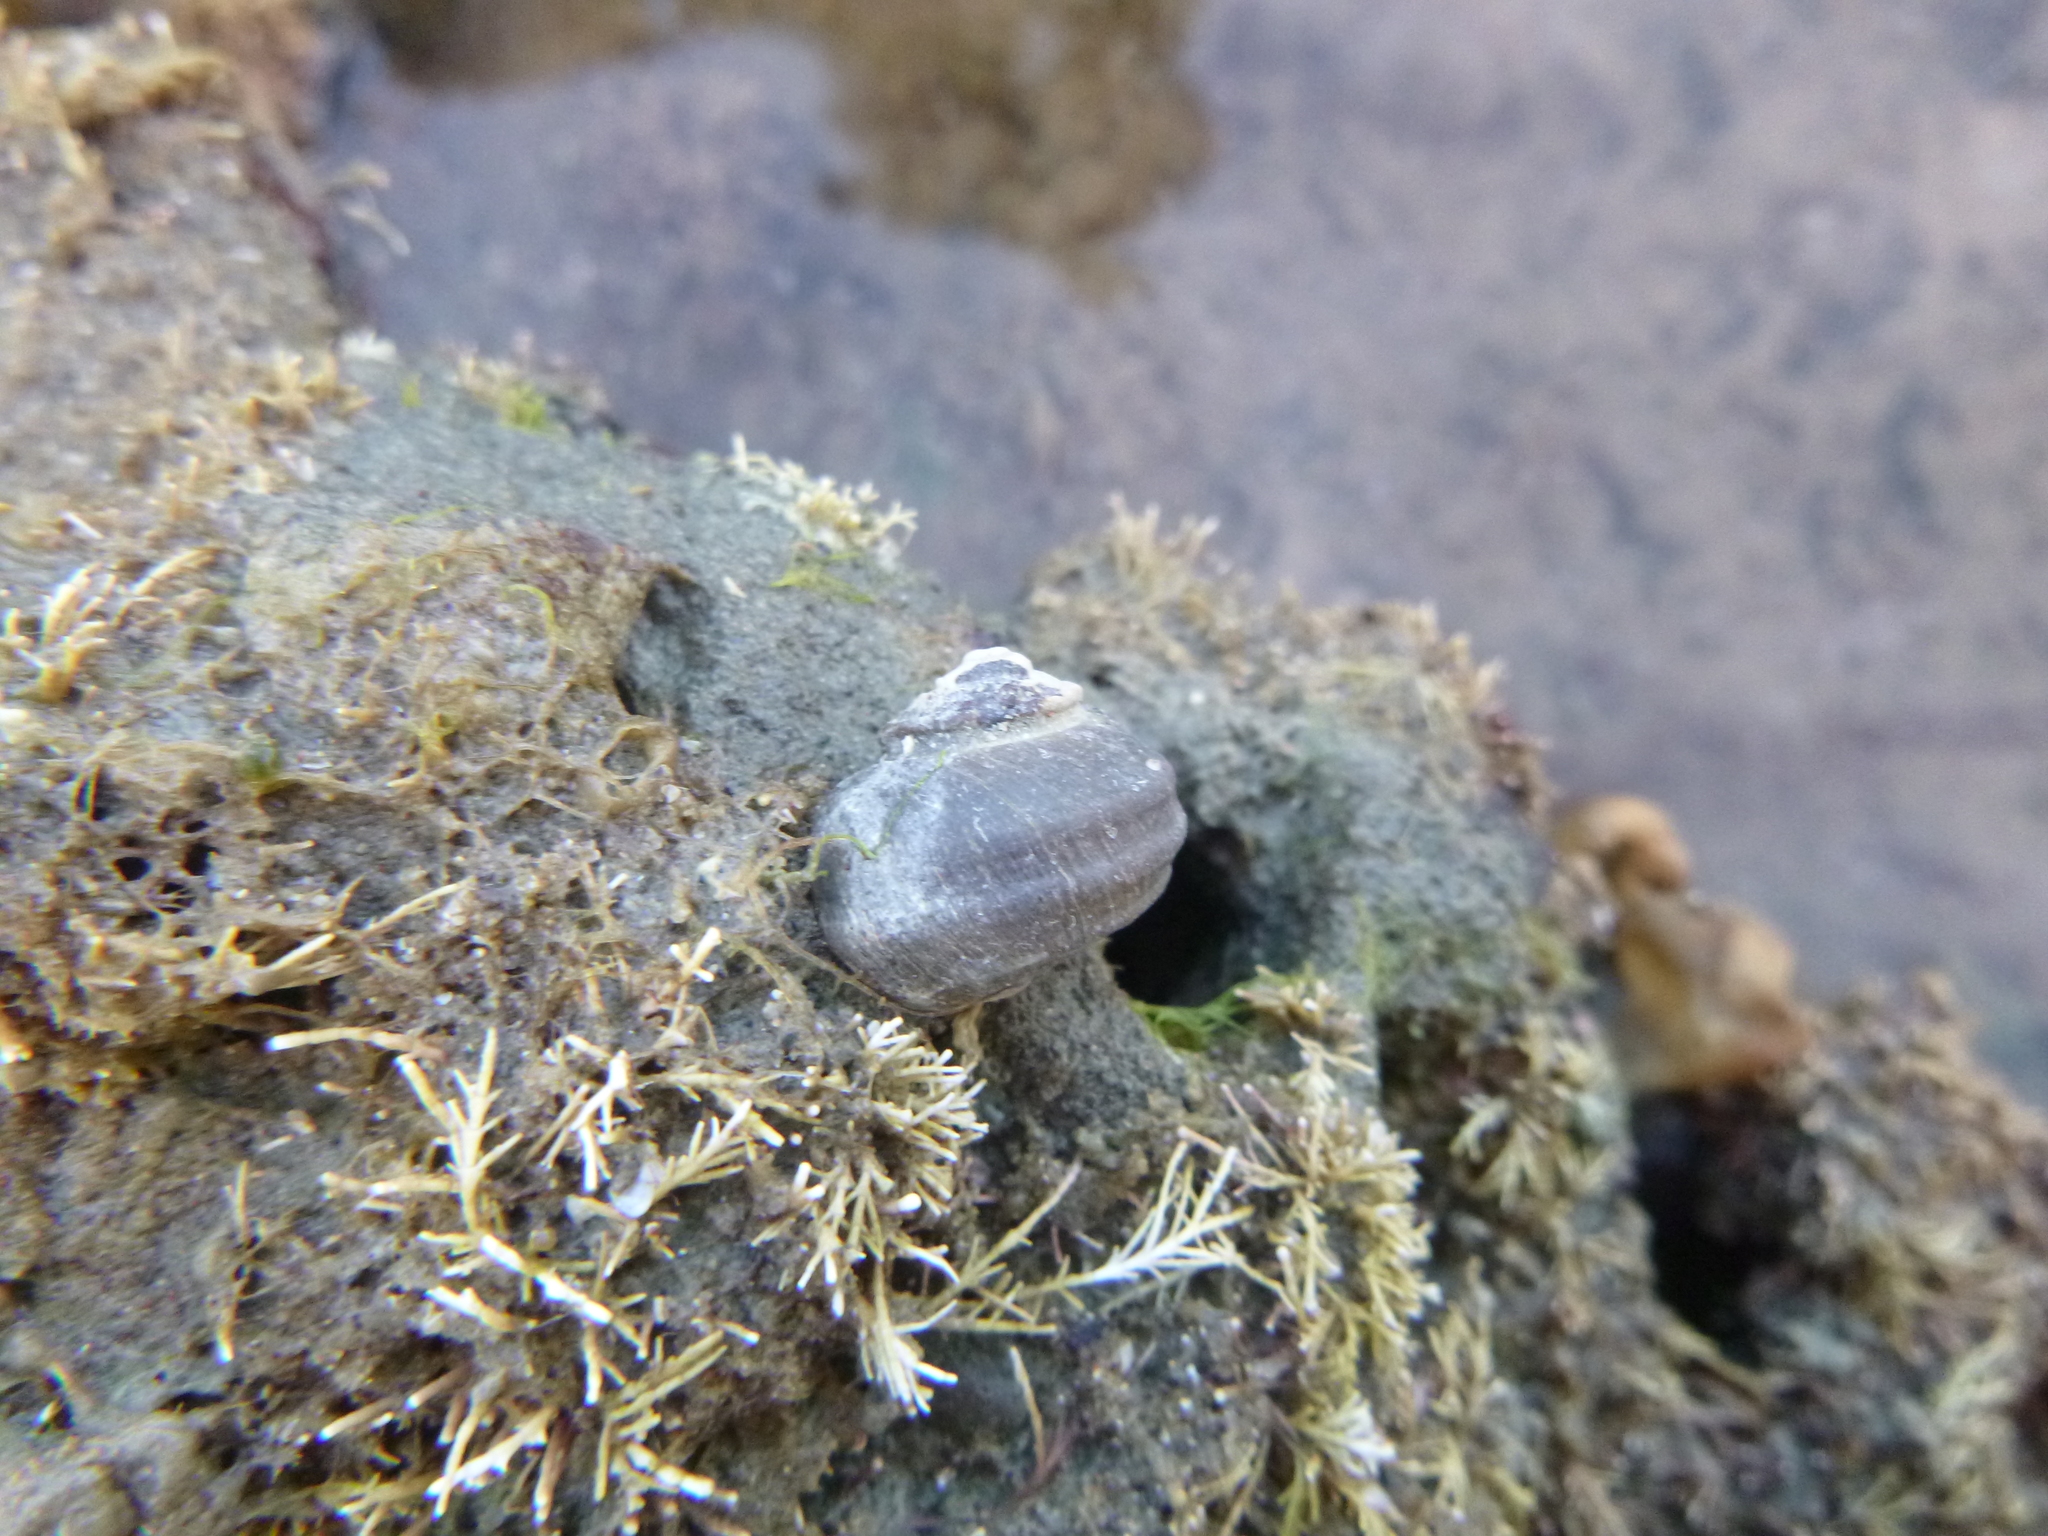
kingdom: Animalia
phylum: Mollusca
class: Gastropoda
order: Trochida
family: Turbinidae
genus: Lunella
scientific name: Lunella smaragda
